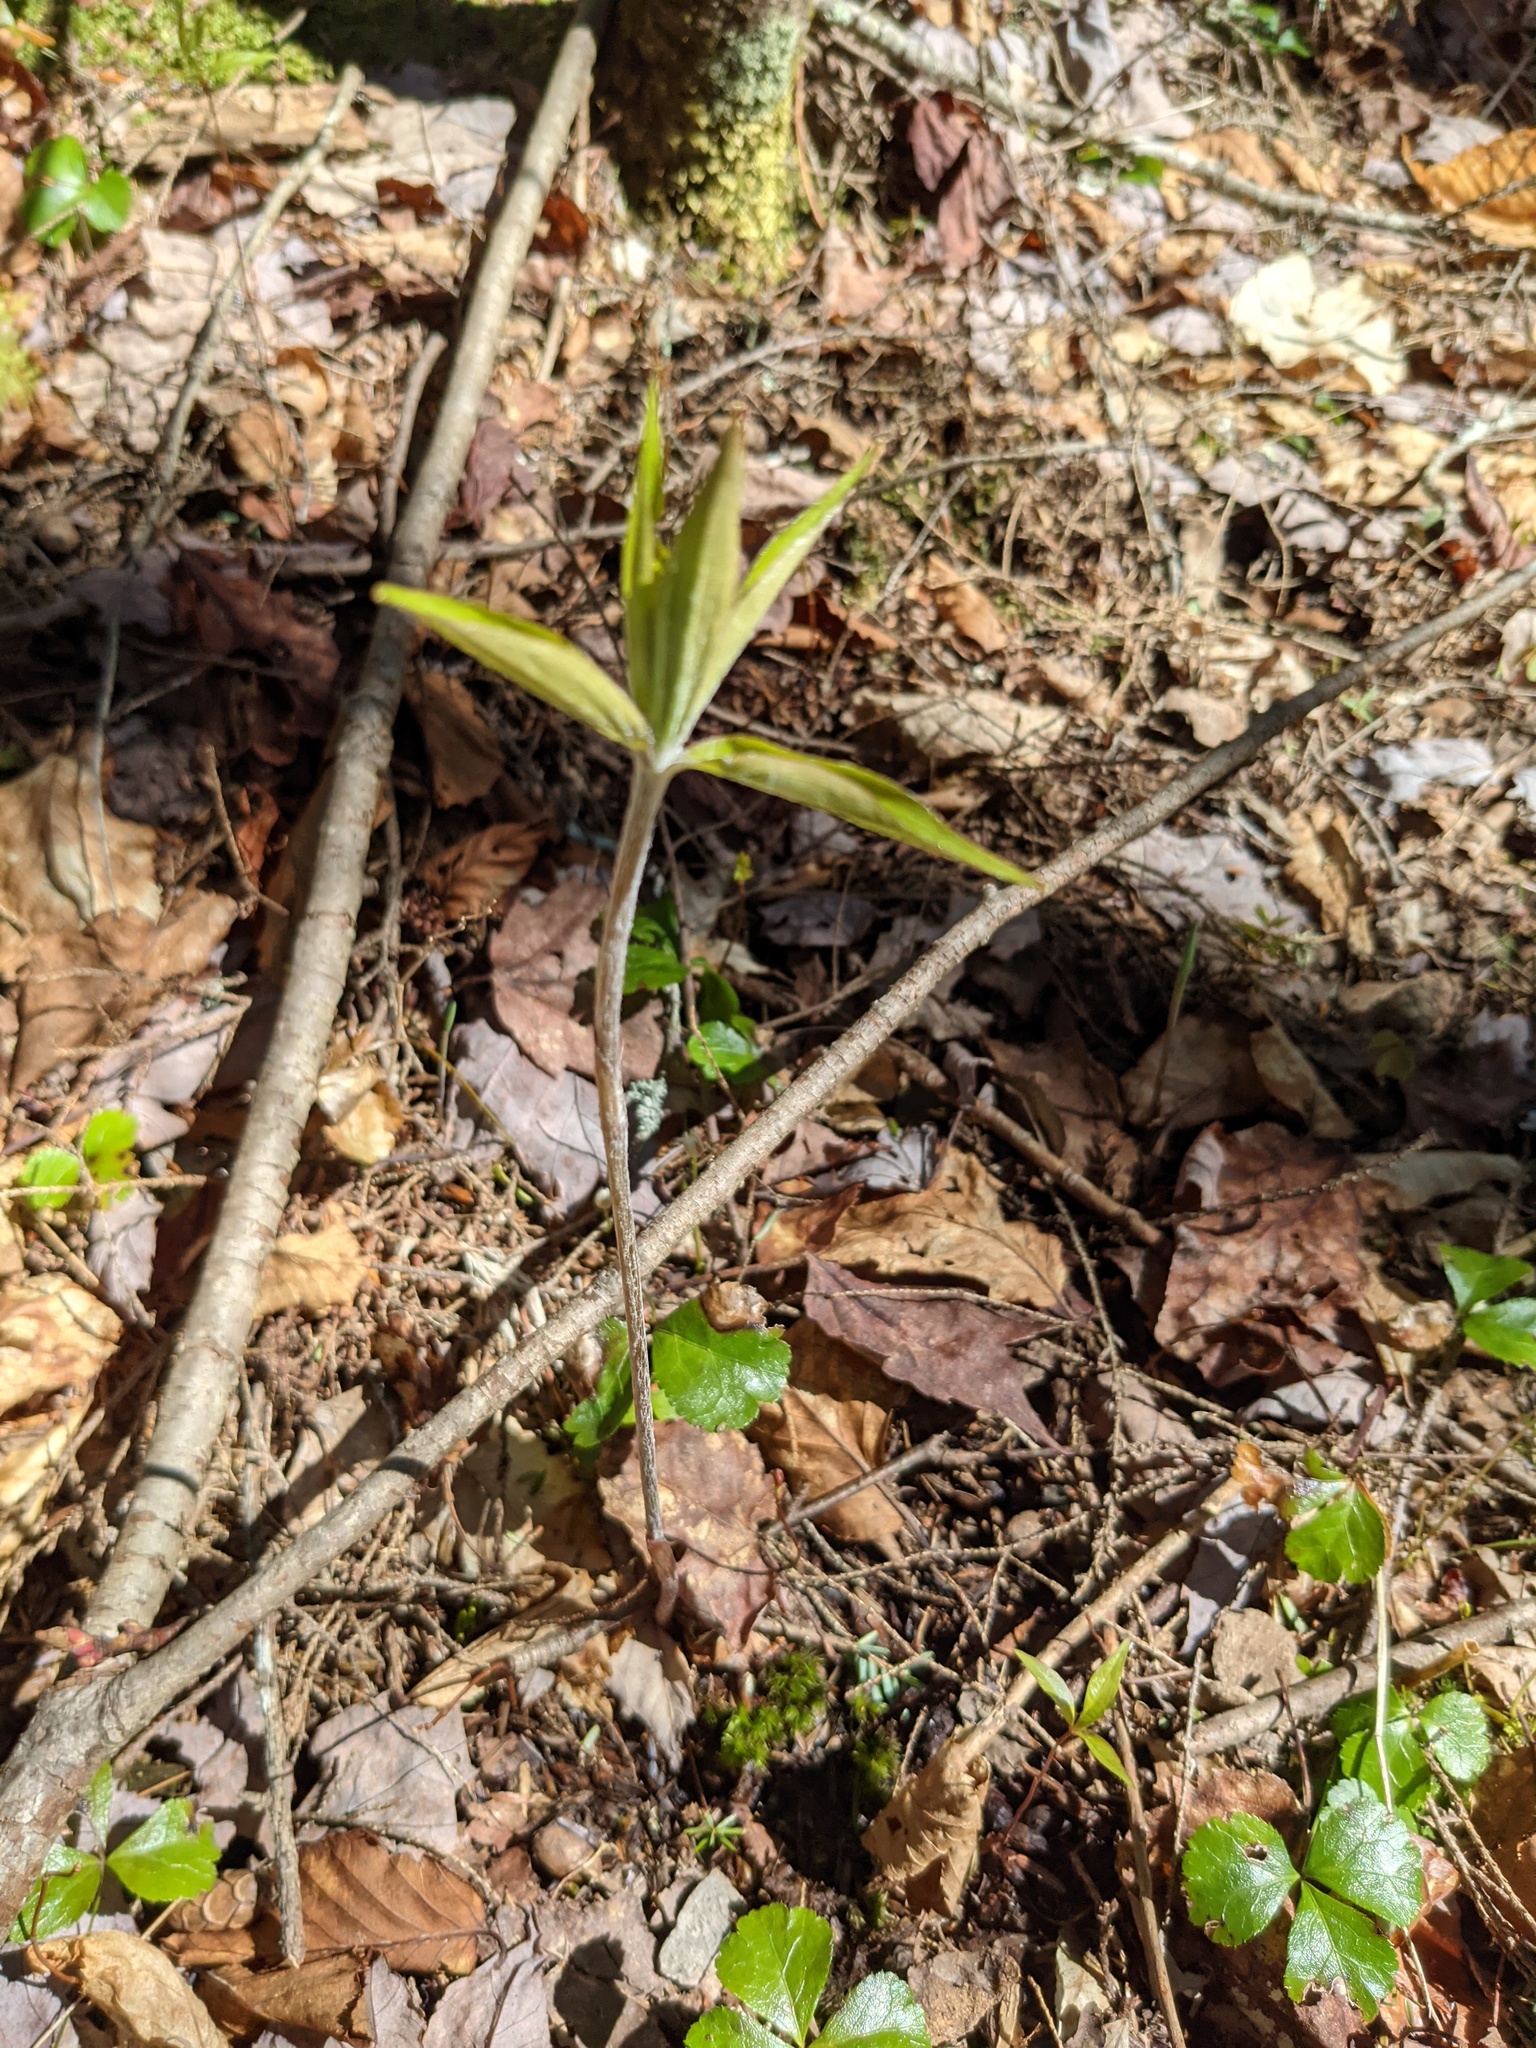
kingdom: Plantae
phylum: Tracheophyta
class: Liliopsida
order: Liliales
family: Liliaceae
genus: Medeola
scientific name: Medeola virginiana
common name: Indian cucumber-root
